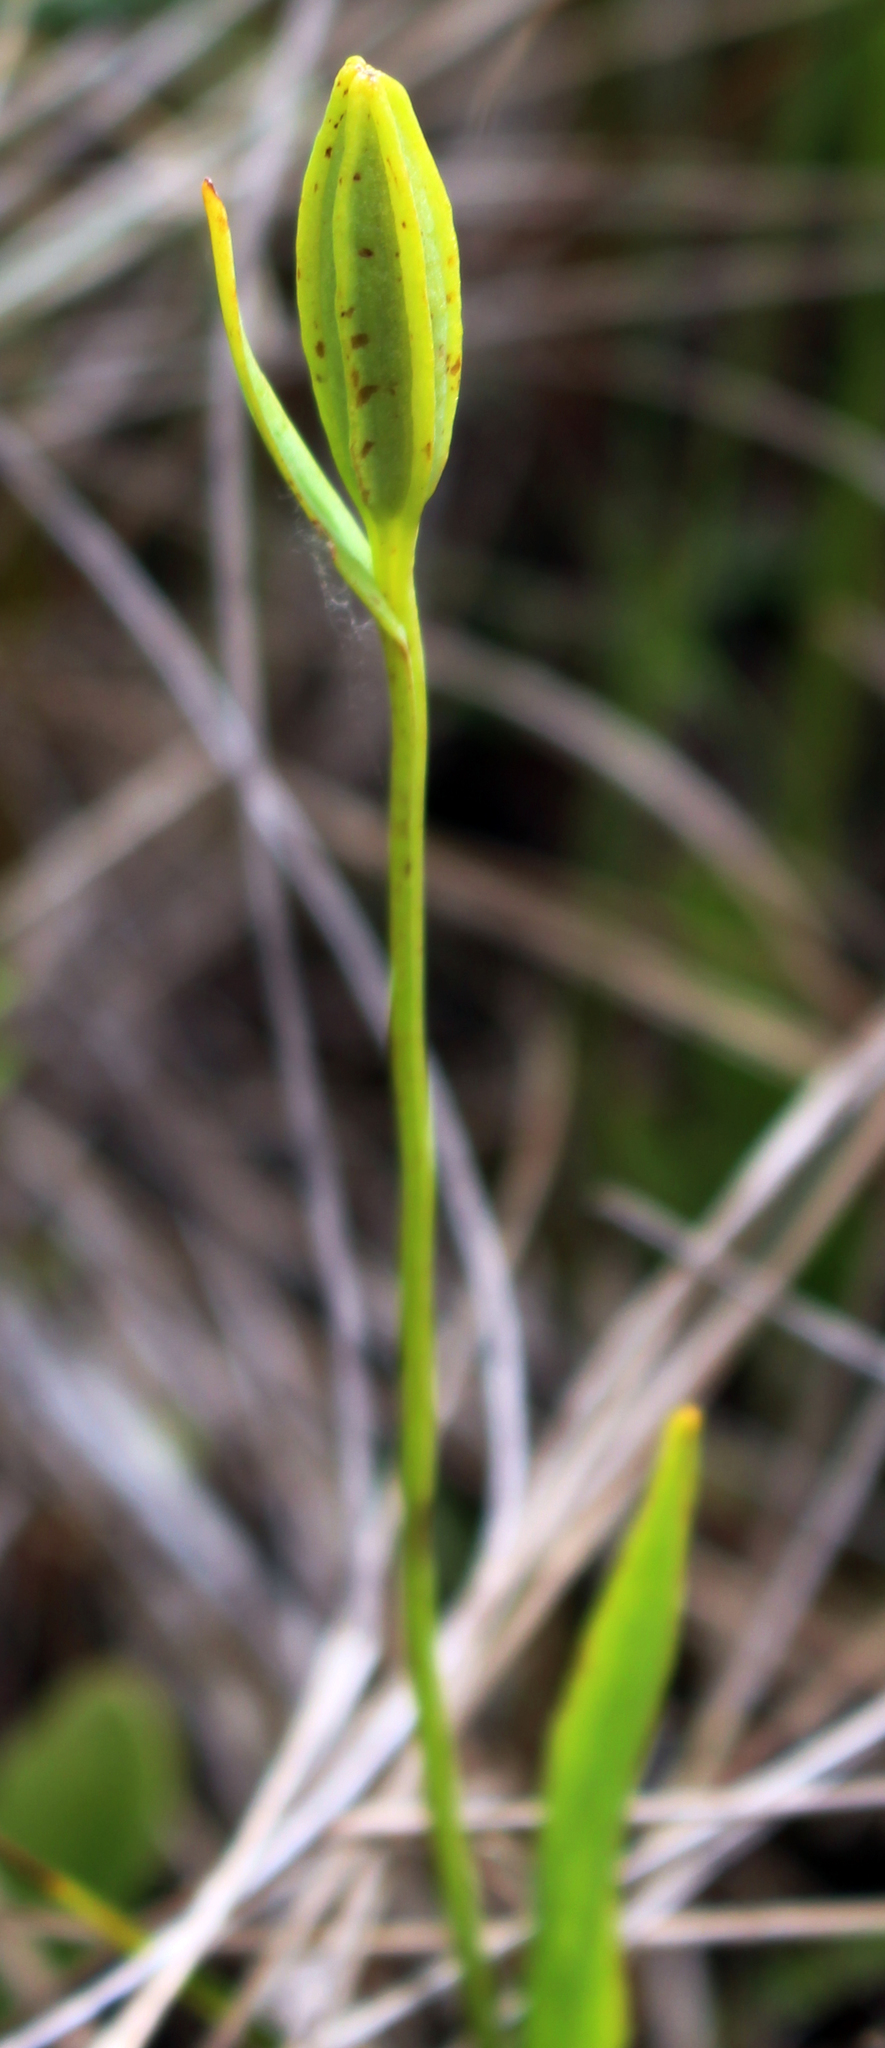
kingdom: Plantae
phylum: Tracheophyta
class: Liliopsida
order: Asparagales
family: Orchidaceae
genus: Pogonia
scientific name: Pogonia ophioglossoides
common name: Rose pogonia
